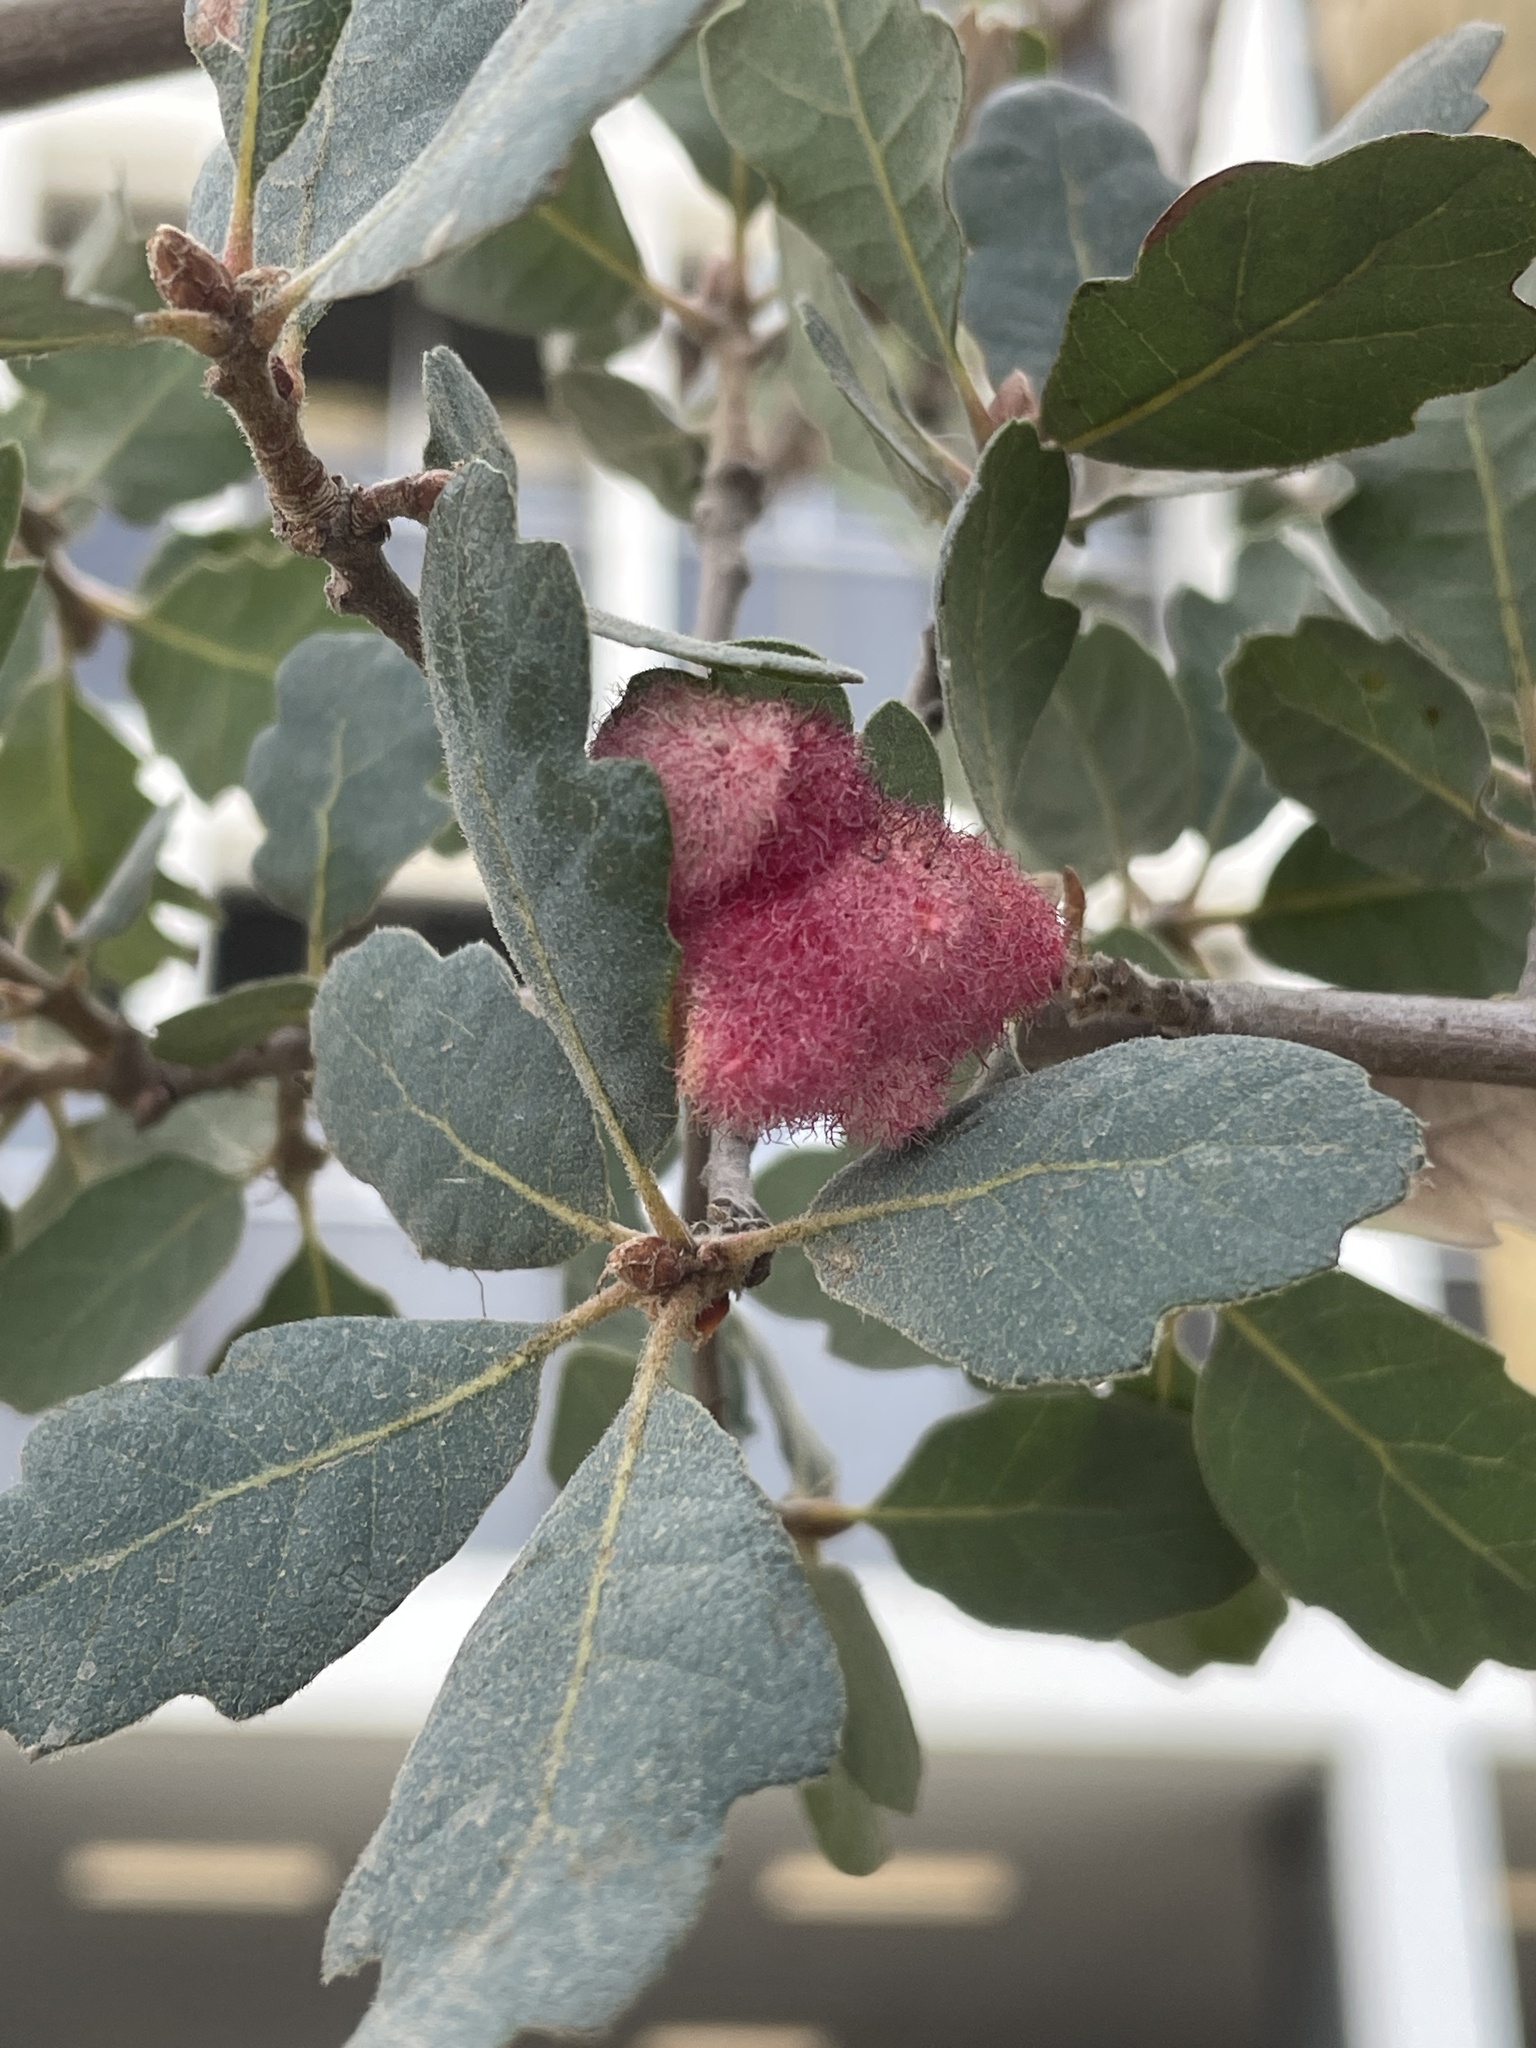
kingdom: Animalia
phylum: Arthropoda
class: Insecta
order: Hymenoptera
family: Cynipidae
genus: Andricus
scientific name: Andricus
